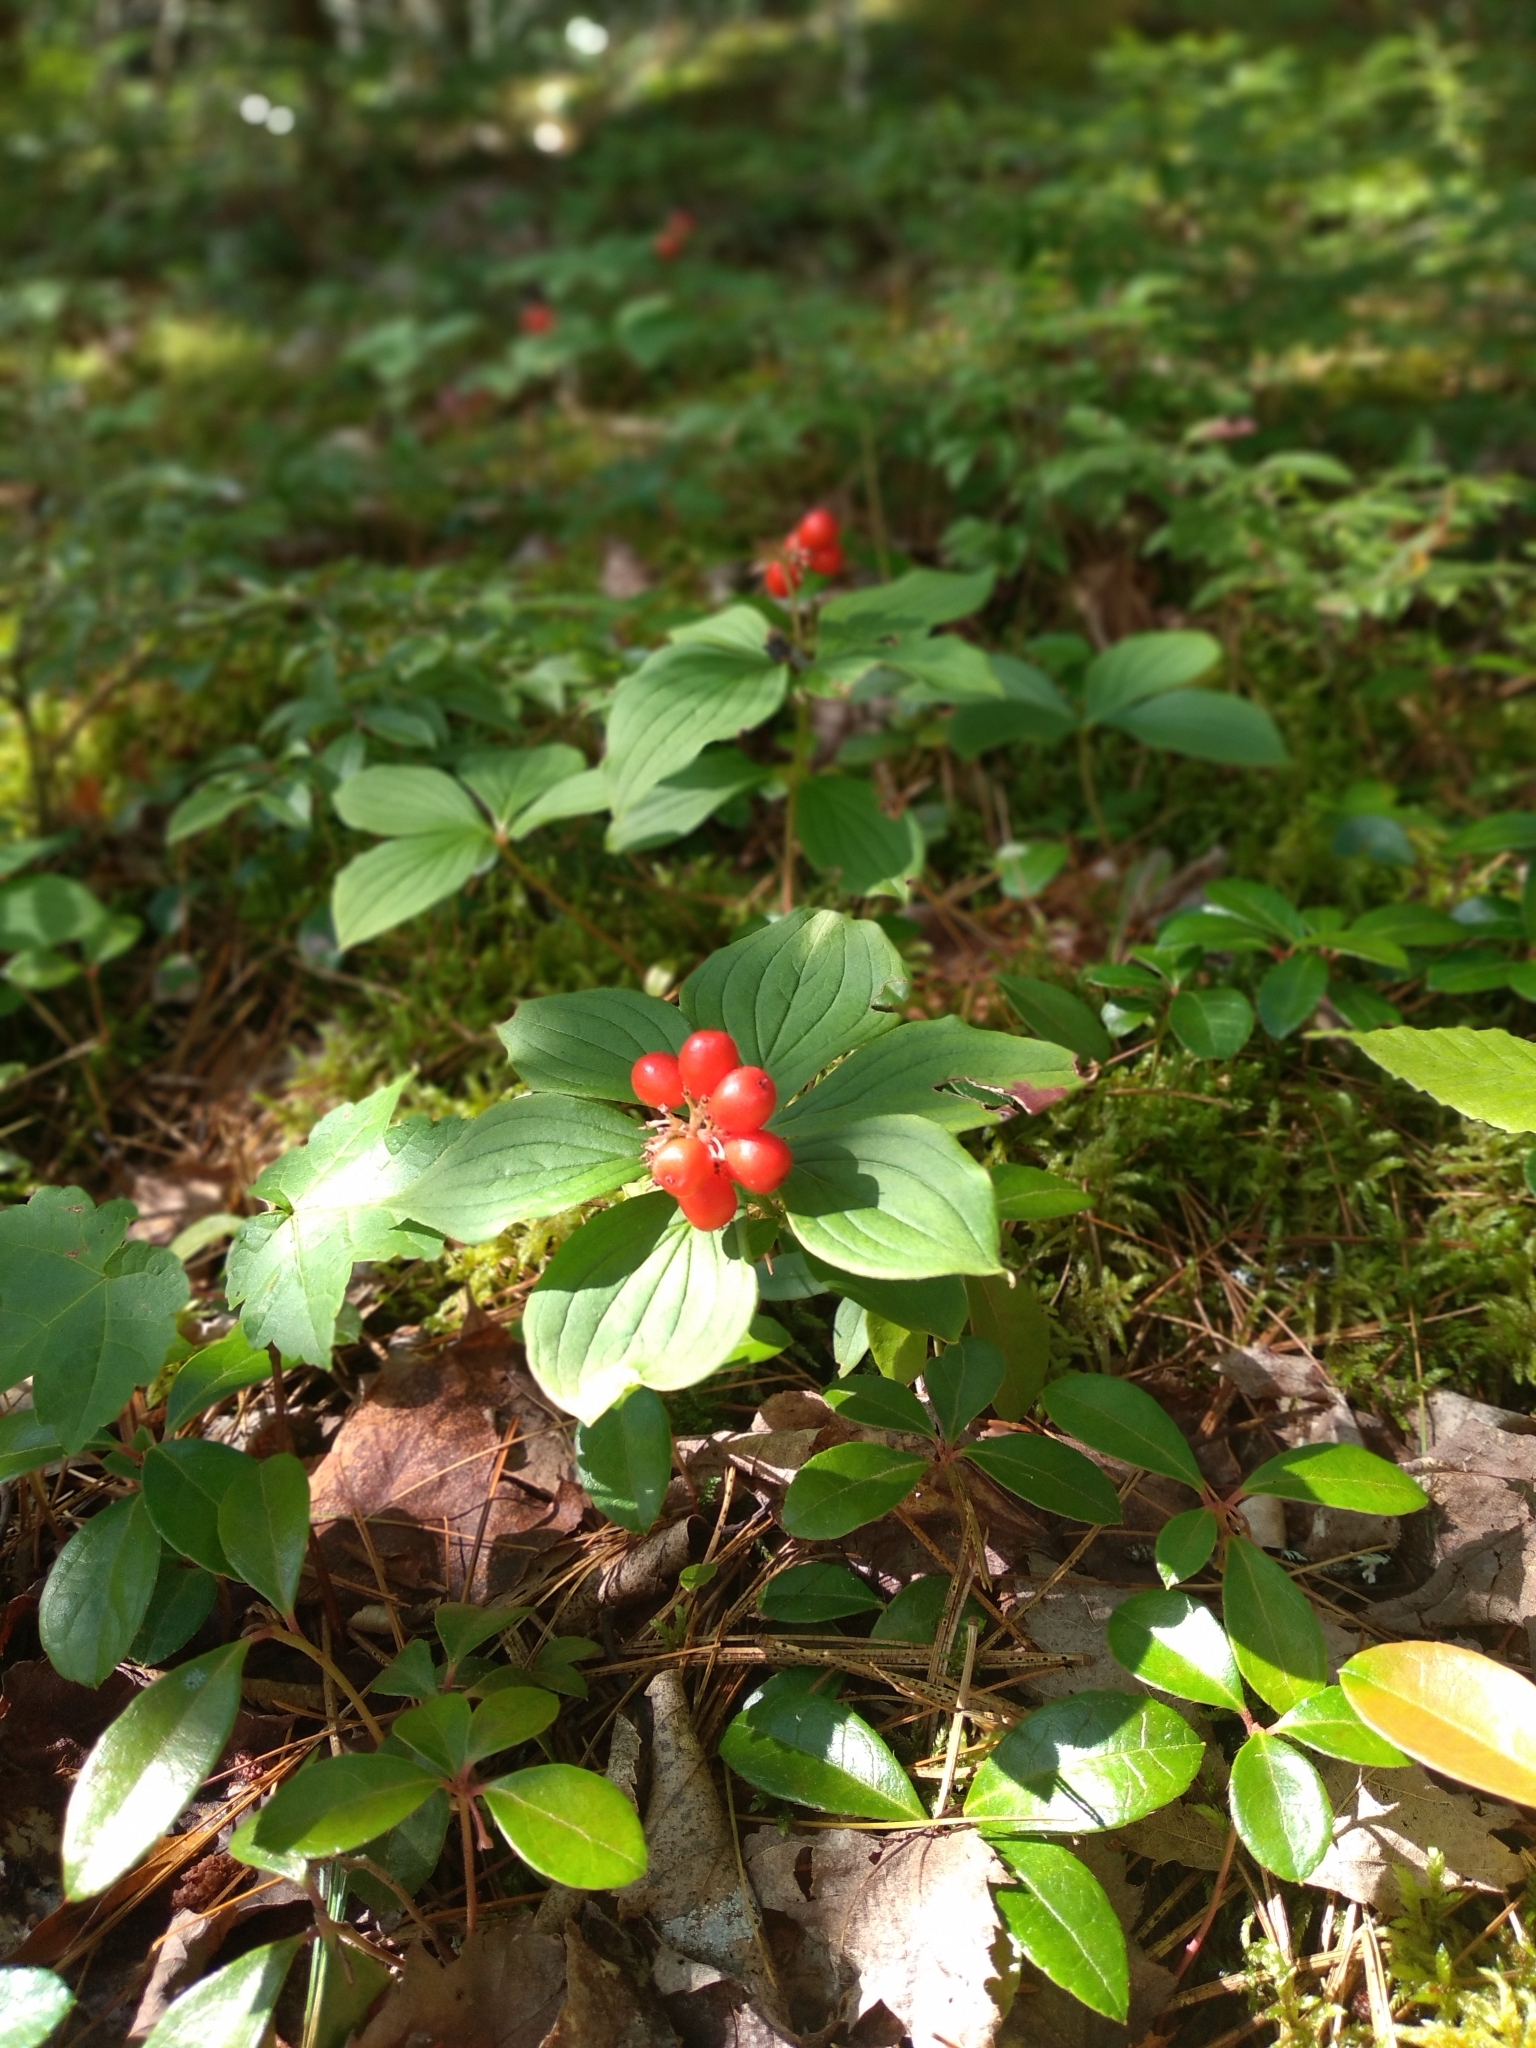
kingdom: Plantae
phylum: Tracheophyta
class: Magnoliopsida
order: Cornales
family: Cornaceae
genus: Cornus
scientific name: Cornus canadensis
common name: Creeping dogwood
